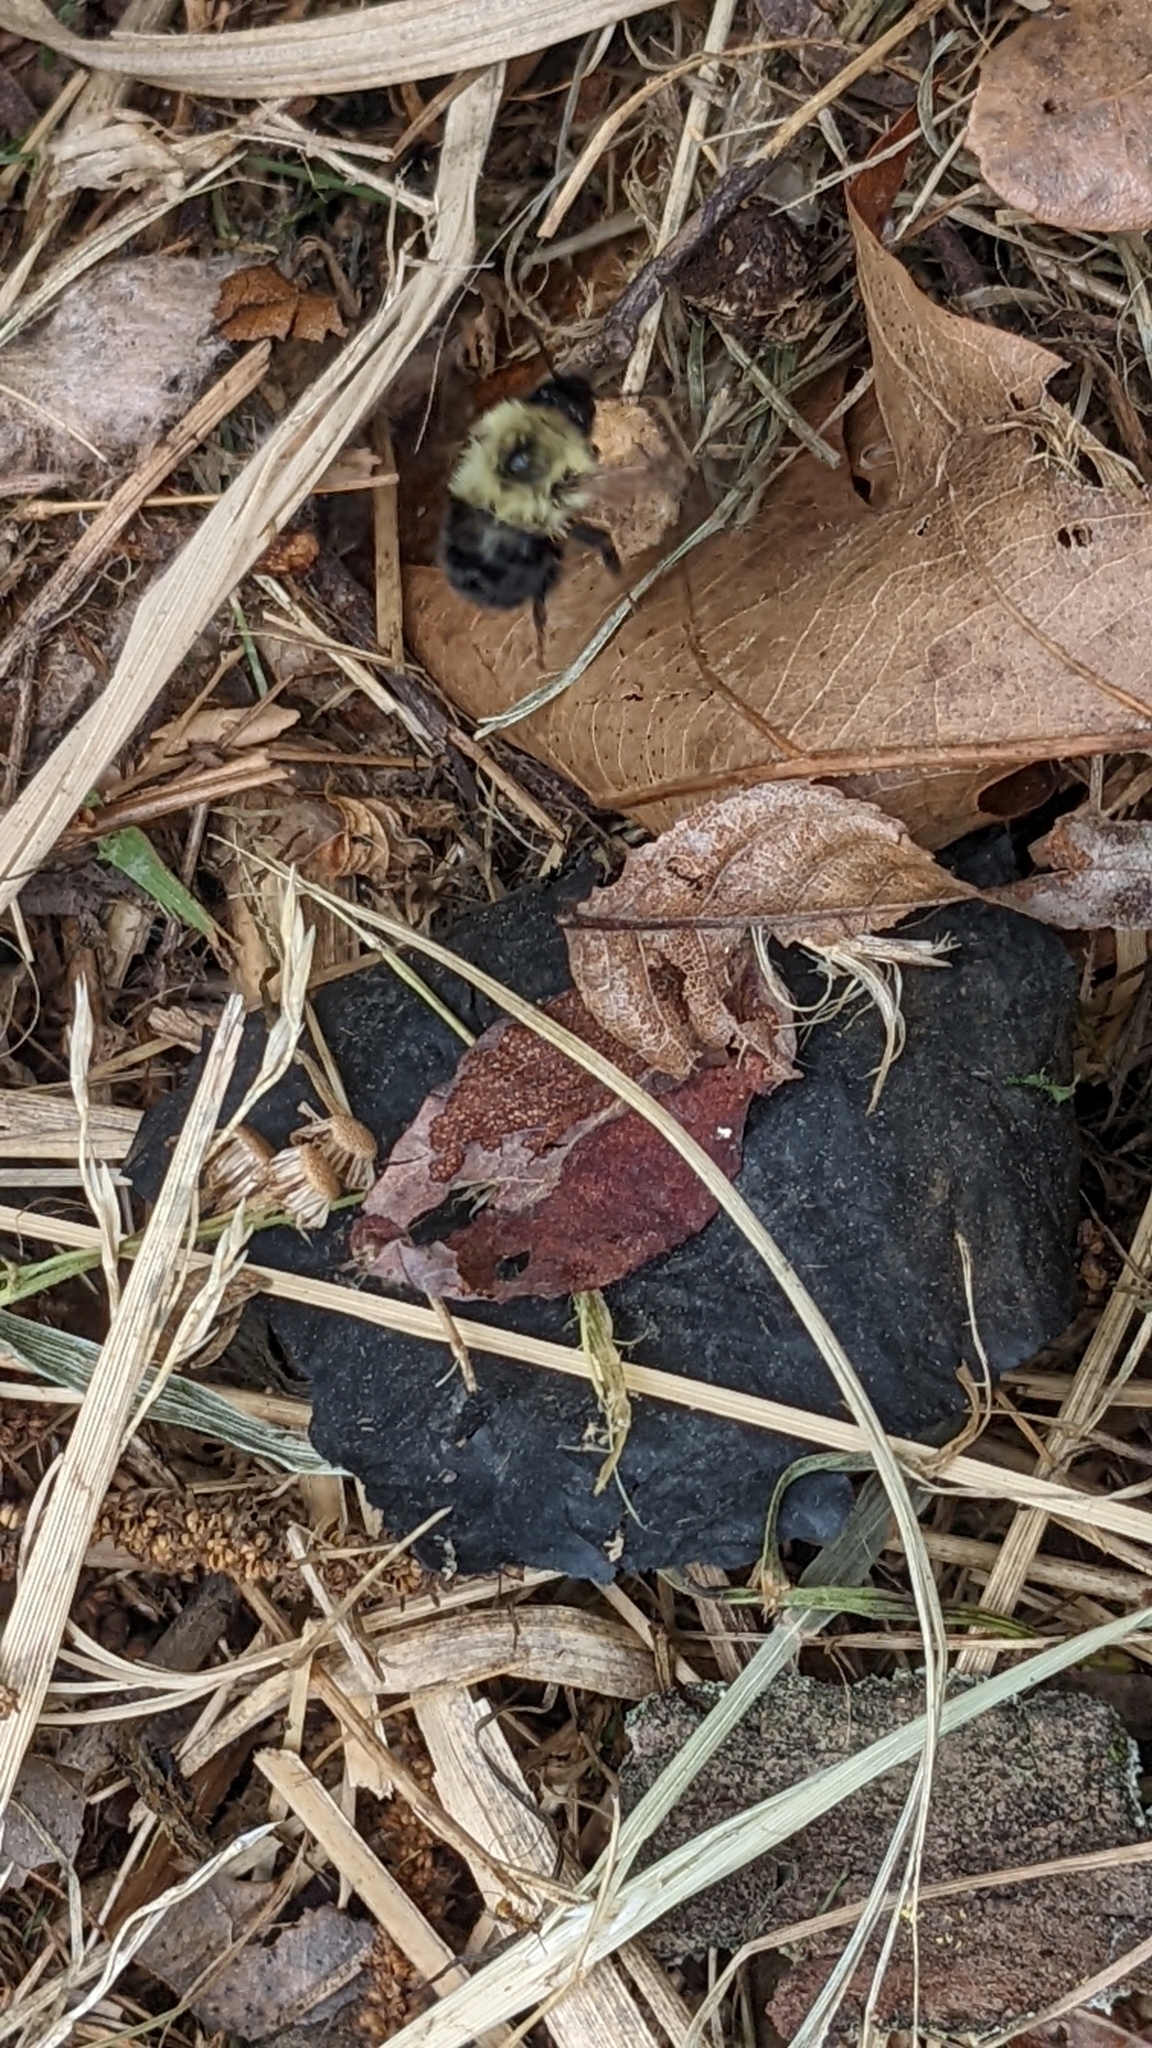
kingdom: Animalia
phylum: Arthropoda
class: Insecta
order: Hymenoptera
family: Apidae
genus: Bombus
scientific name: Bombus bimaculatus
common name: Two-spotted bumble bee
